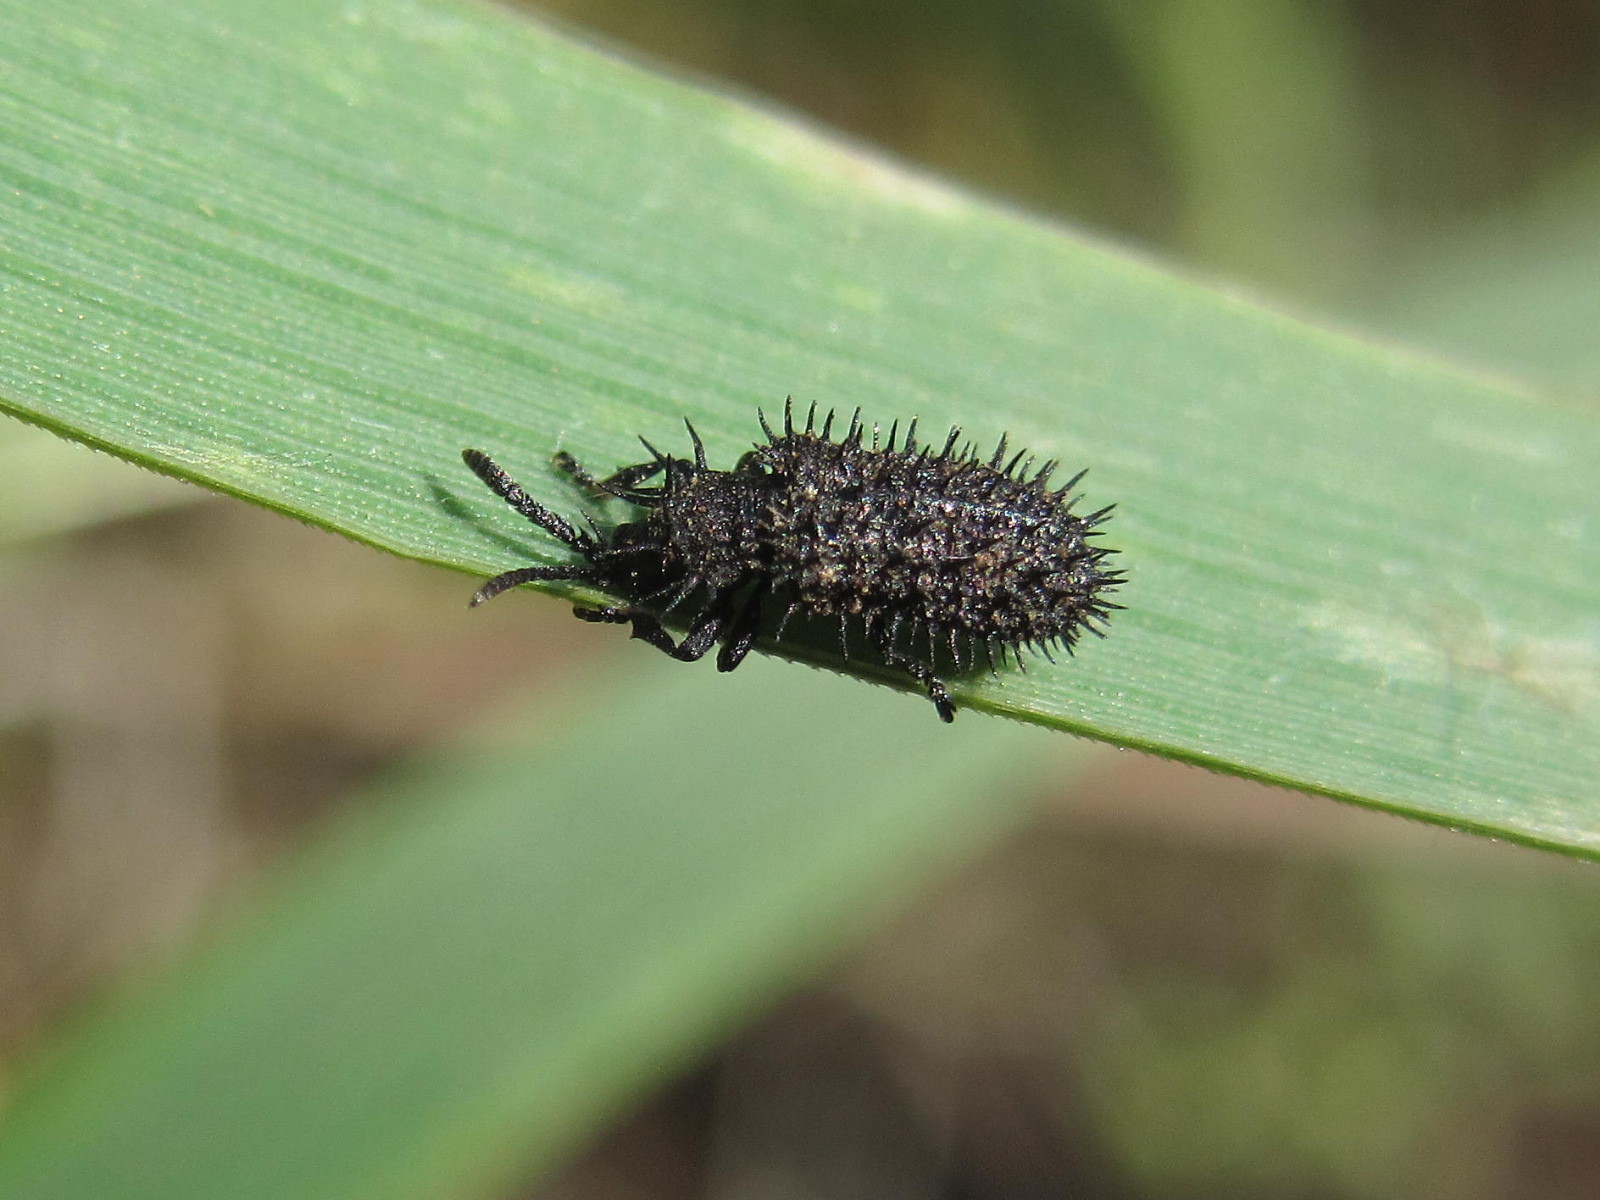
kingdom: Animalia
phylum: Arthropoda
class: Insecta
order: Coleoptera
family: Chrysomelidae
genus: Hispa
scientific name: Hispa atra
